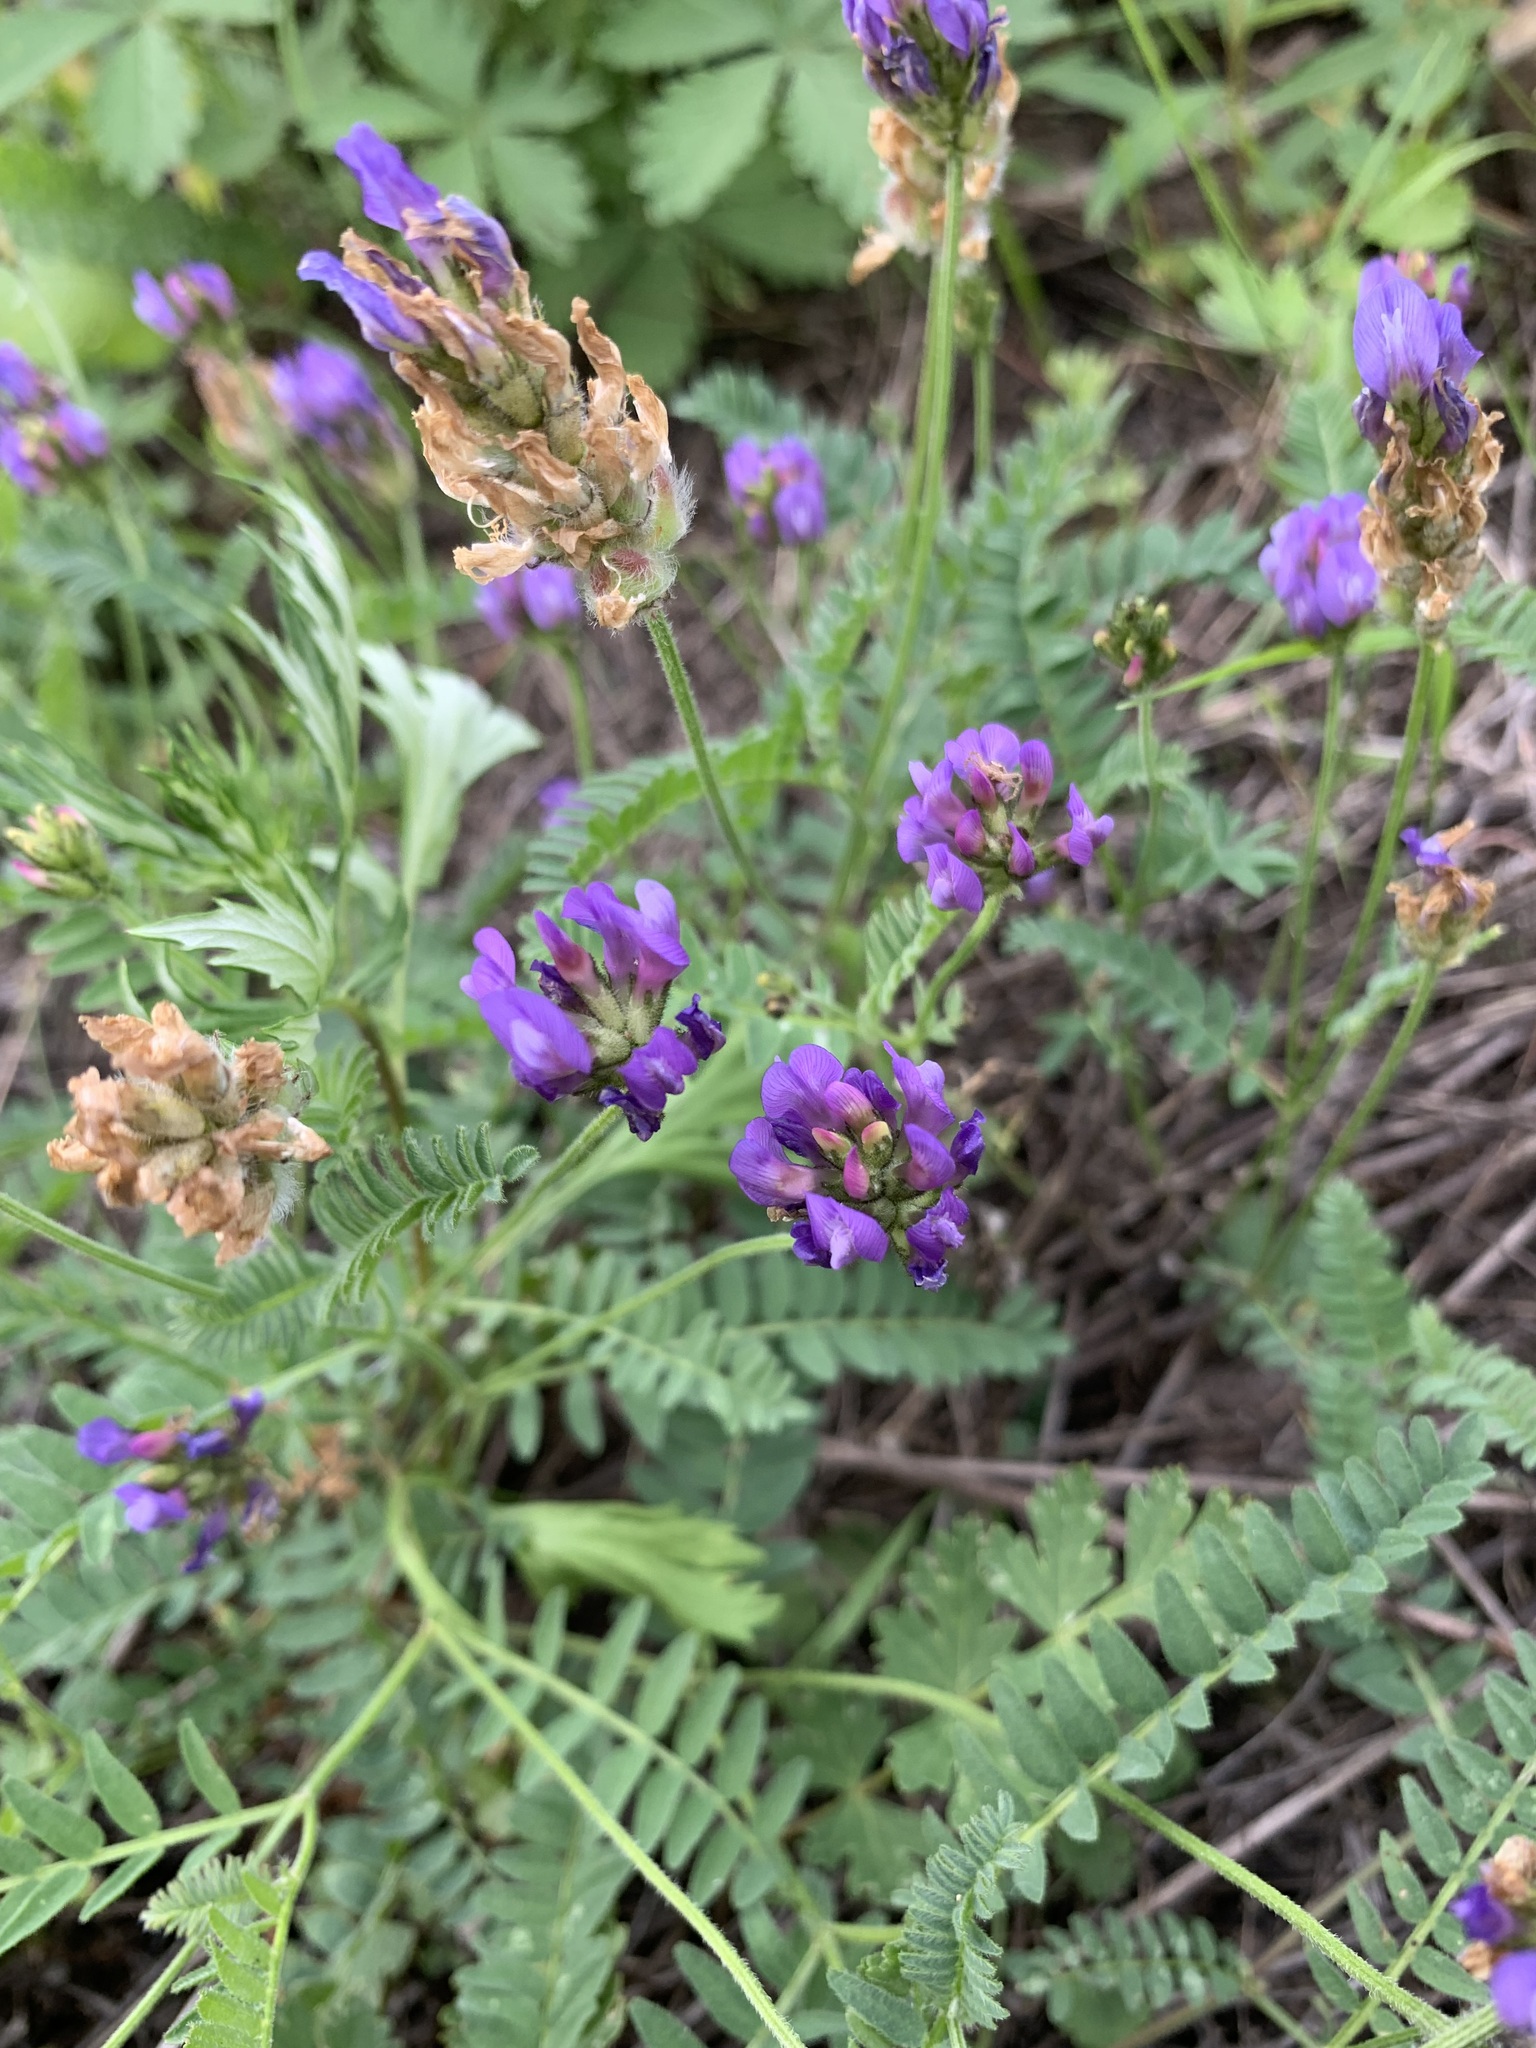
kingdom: Plantae
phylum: Tracheophyta
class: Magnoliopsida
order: Fabales
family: Fabaceae
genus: Astragalus
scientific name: Astragalus danicus
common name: Purple milk-vetch
